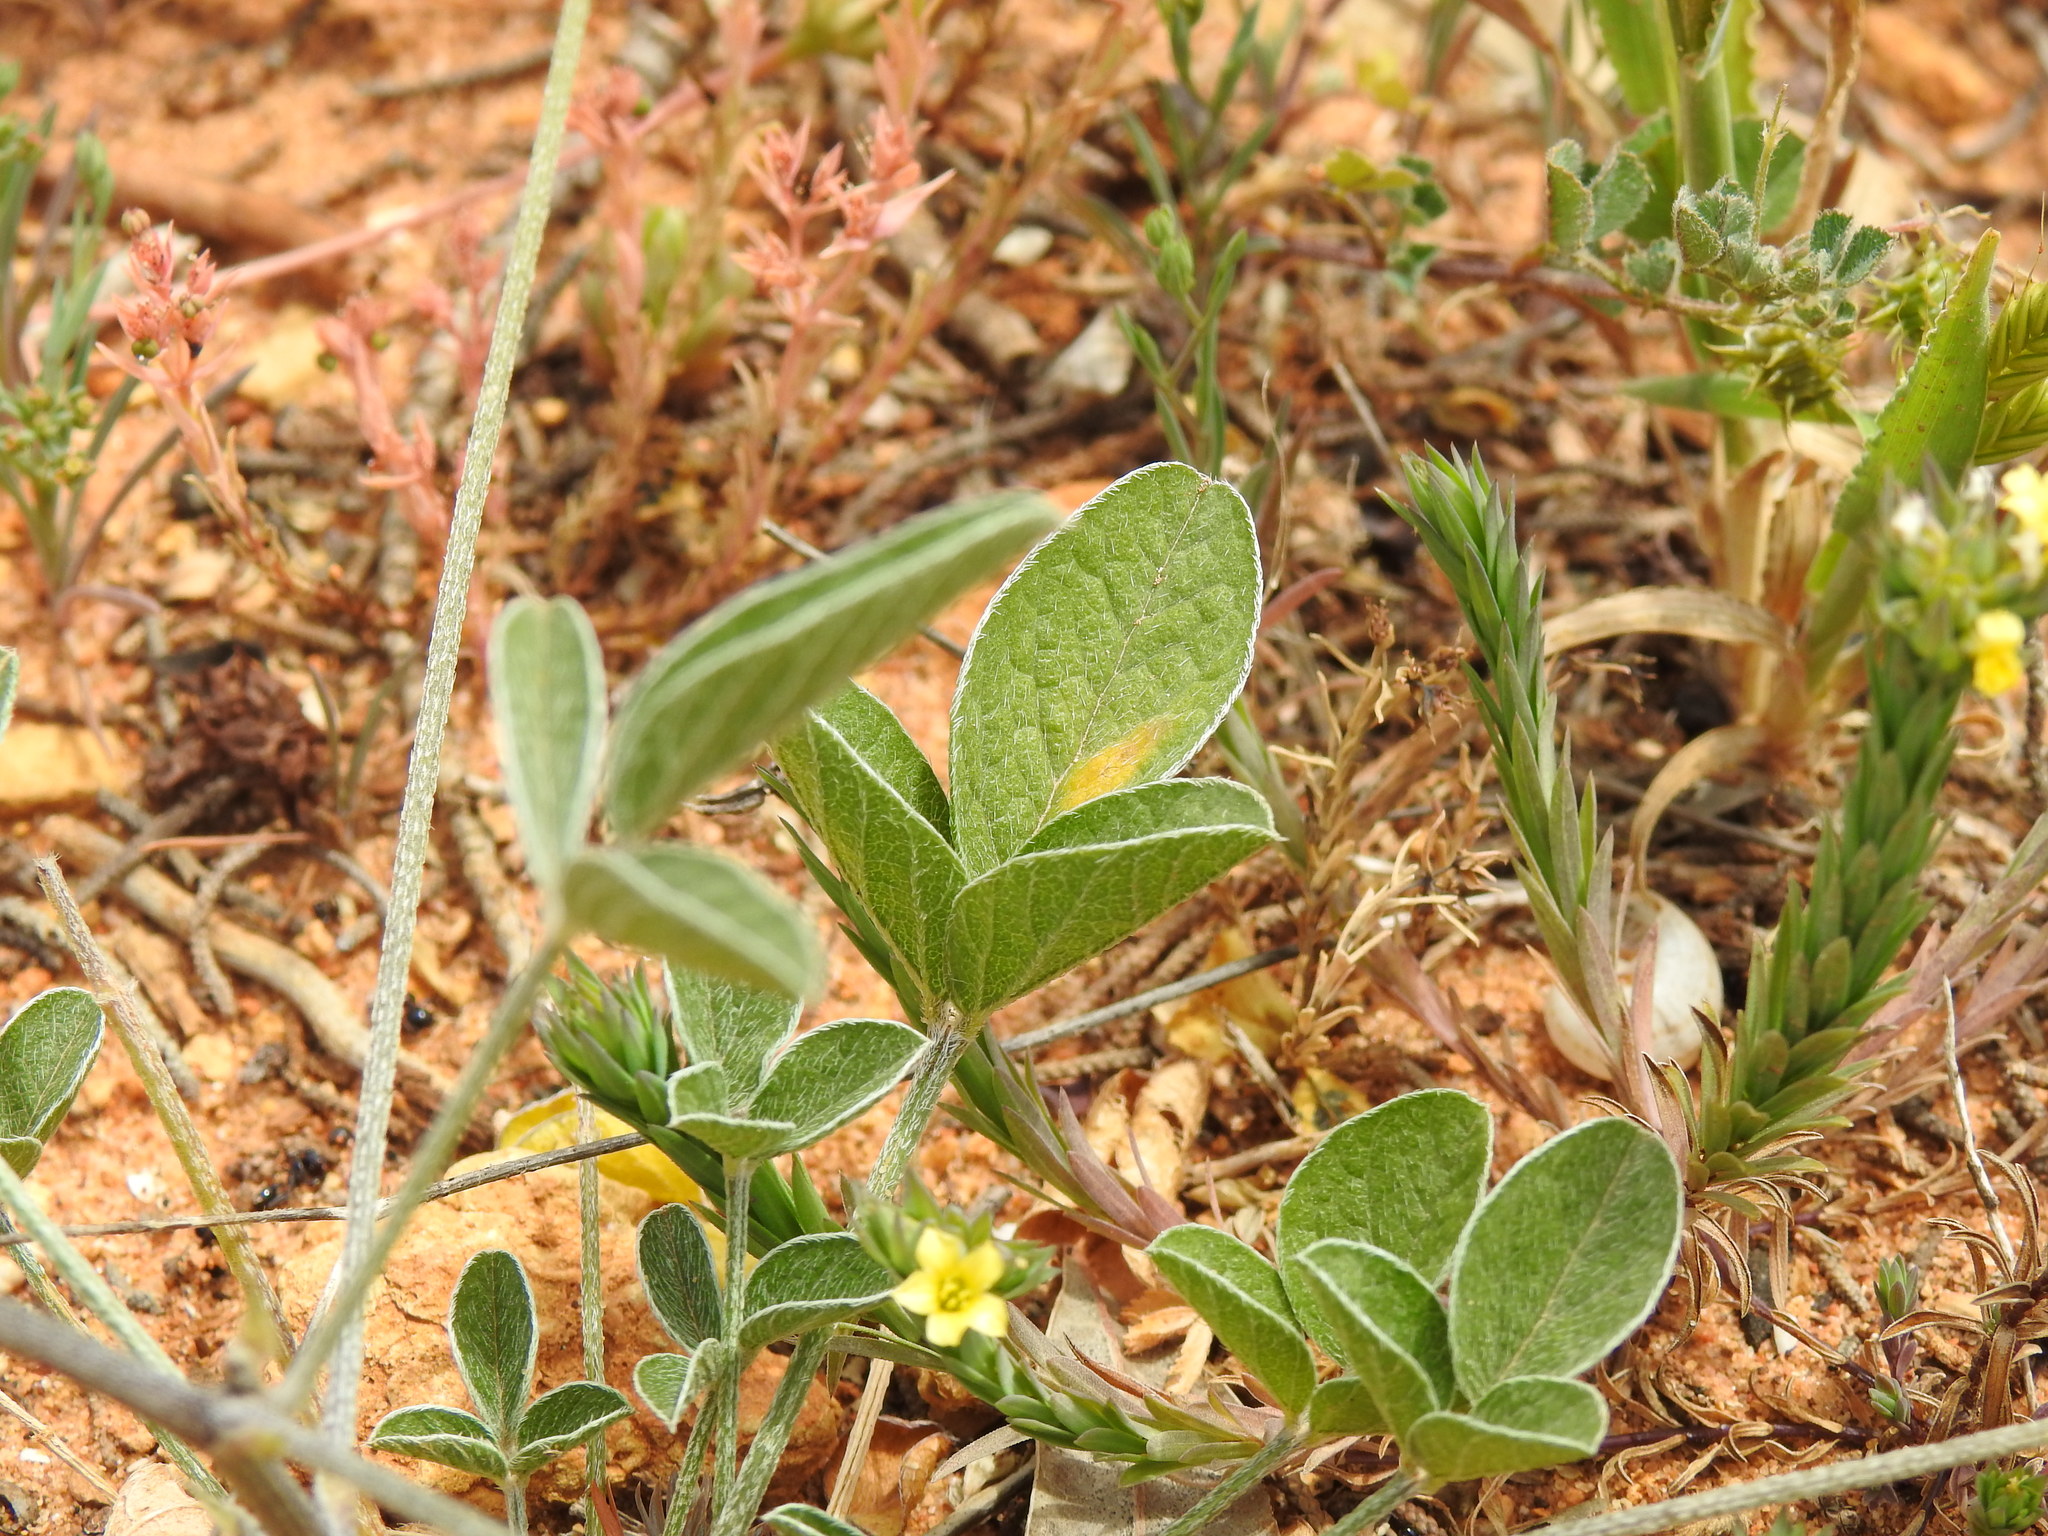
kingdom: Plantae
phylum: Tracheophyta
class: Magnoliopsida
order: Fabales
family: Fabaceae
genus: Bituminaria
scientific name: Bituminaria bituminosa
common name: Arabian pea
